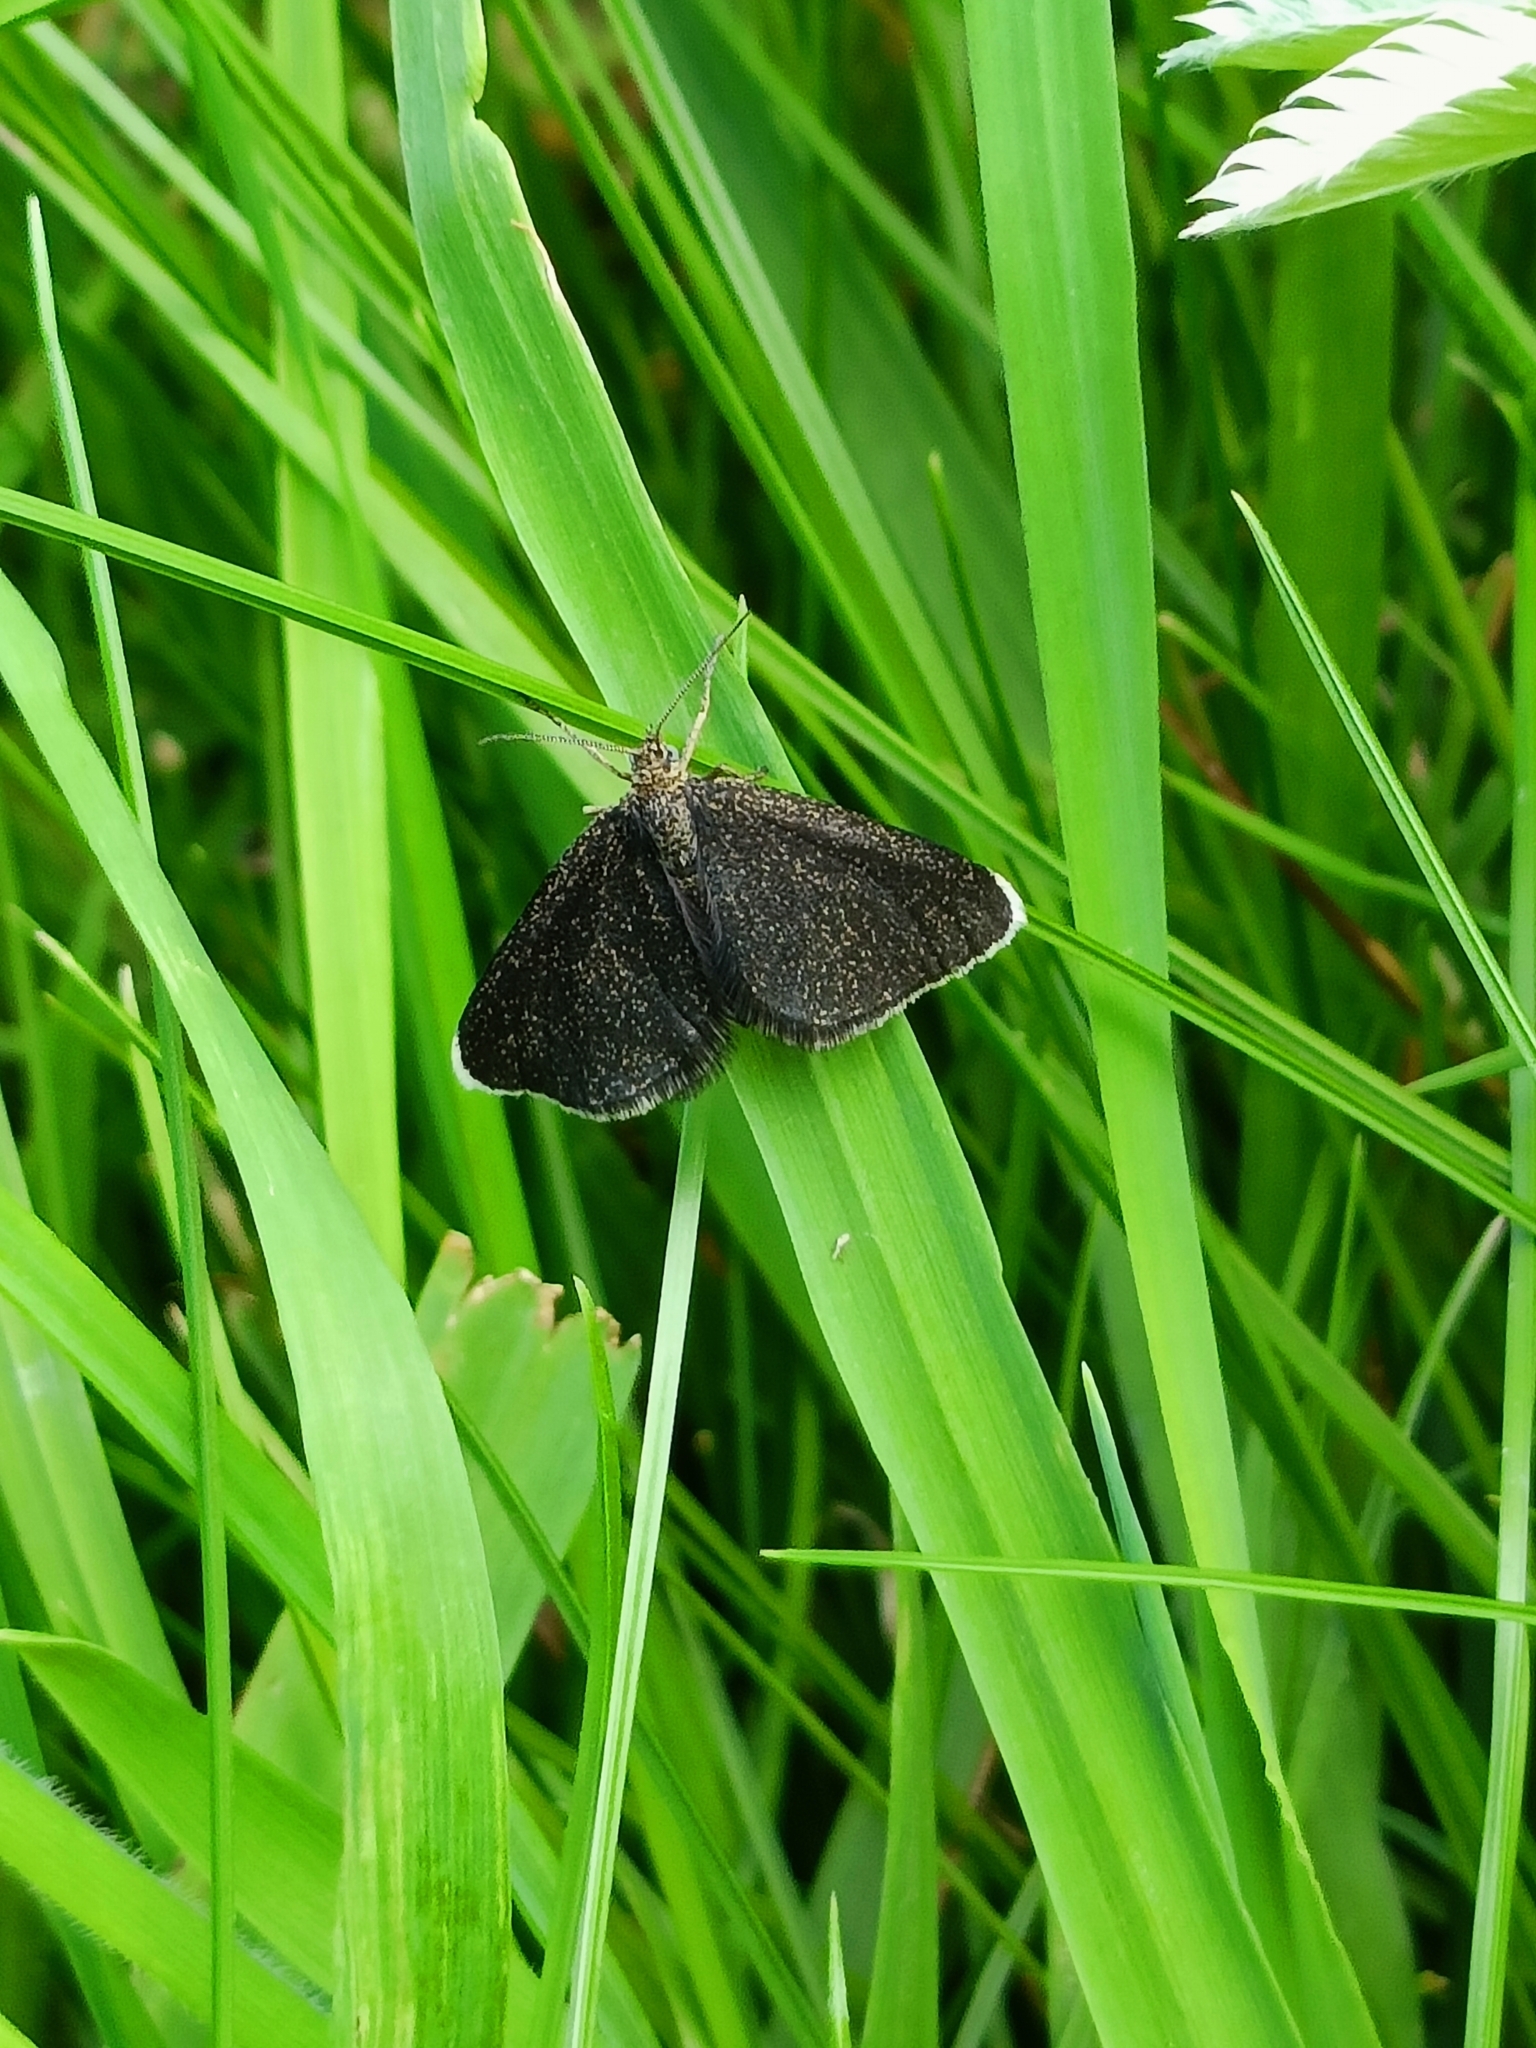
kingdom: Animalia
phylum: Arthropoda
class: Insecta
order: Lepidoptera
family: Geometridae
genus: Odezia
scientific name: Odezia atrata
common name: Chimney sweeper
